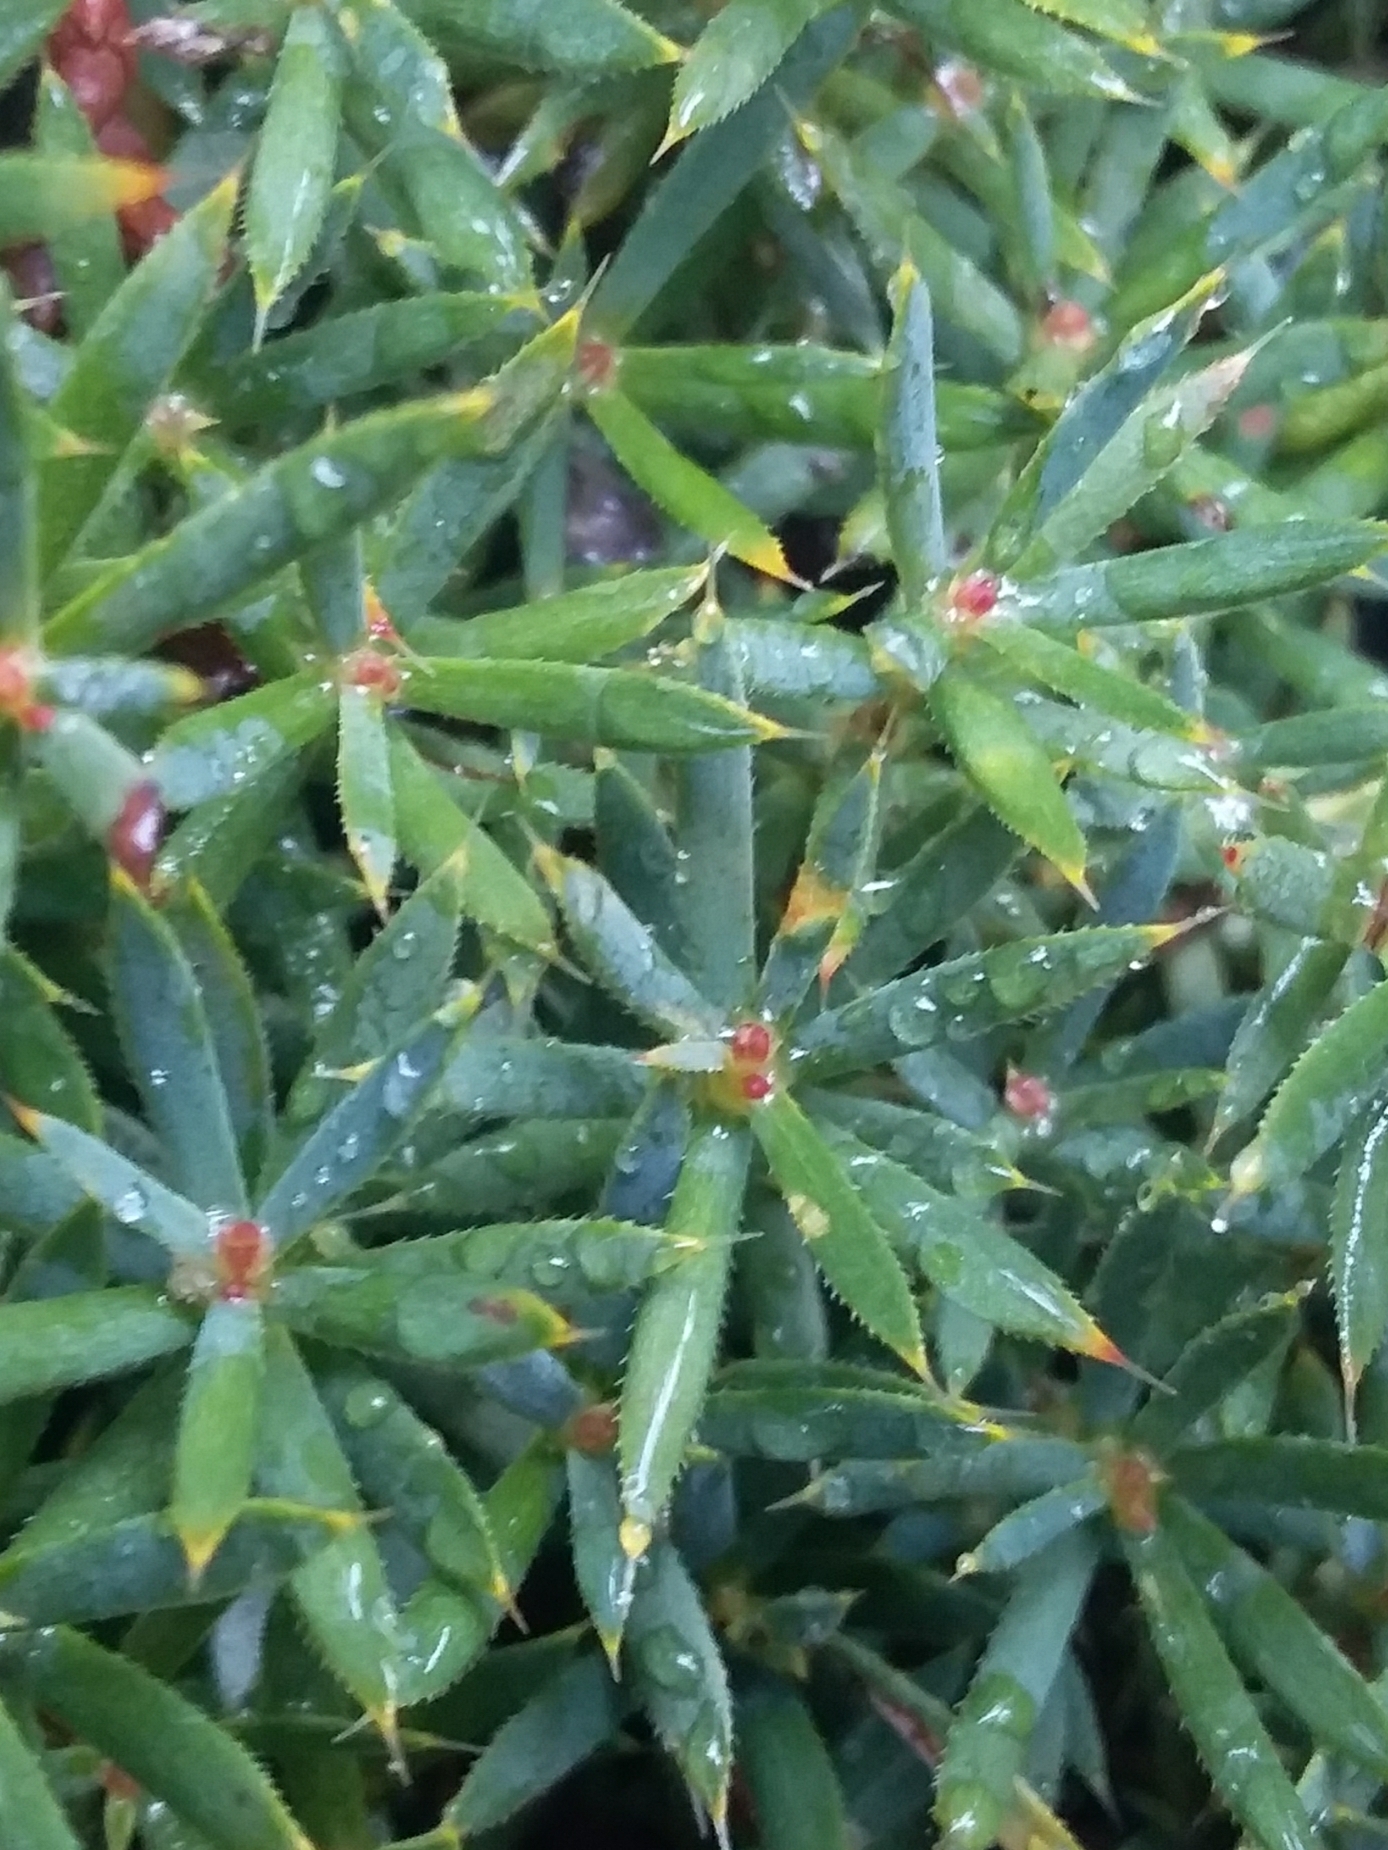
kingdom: Plantae
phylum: Tracheophyta
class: Magnoliopsida
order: Ericales
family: Ericaceae
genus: Styphelia
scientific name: Styphelia humifusa
